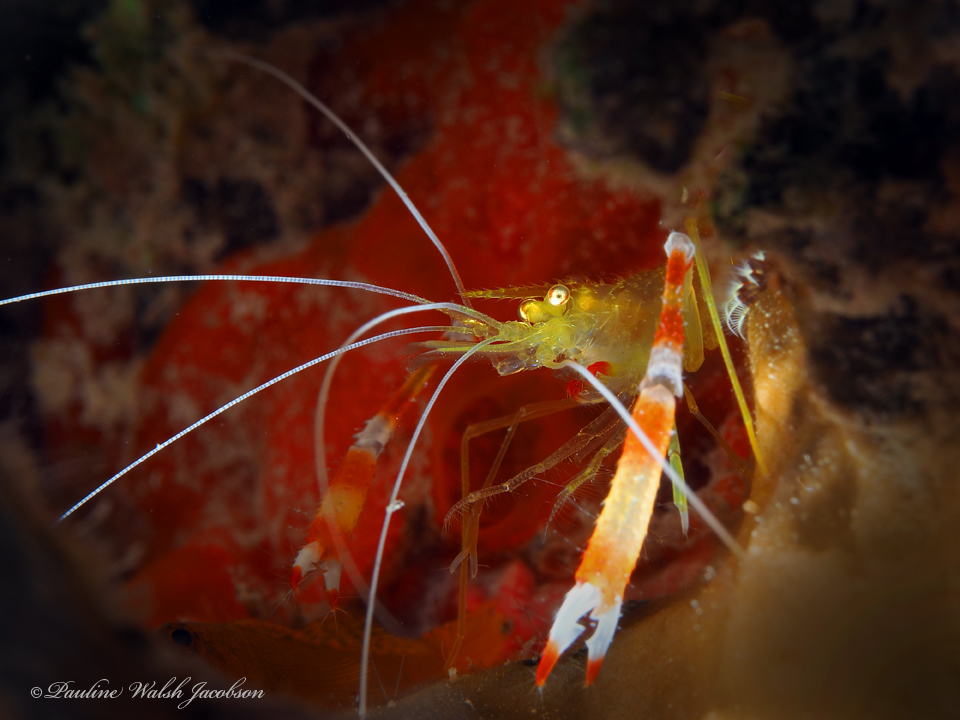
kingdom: Animalia
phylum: Arthropoda
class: Malacostraca
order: Decapoda
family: Stenopodidae
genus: Stenopus
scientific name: Stenopus scutellatus
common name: Golden coral shrimp
